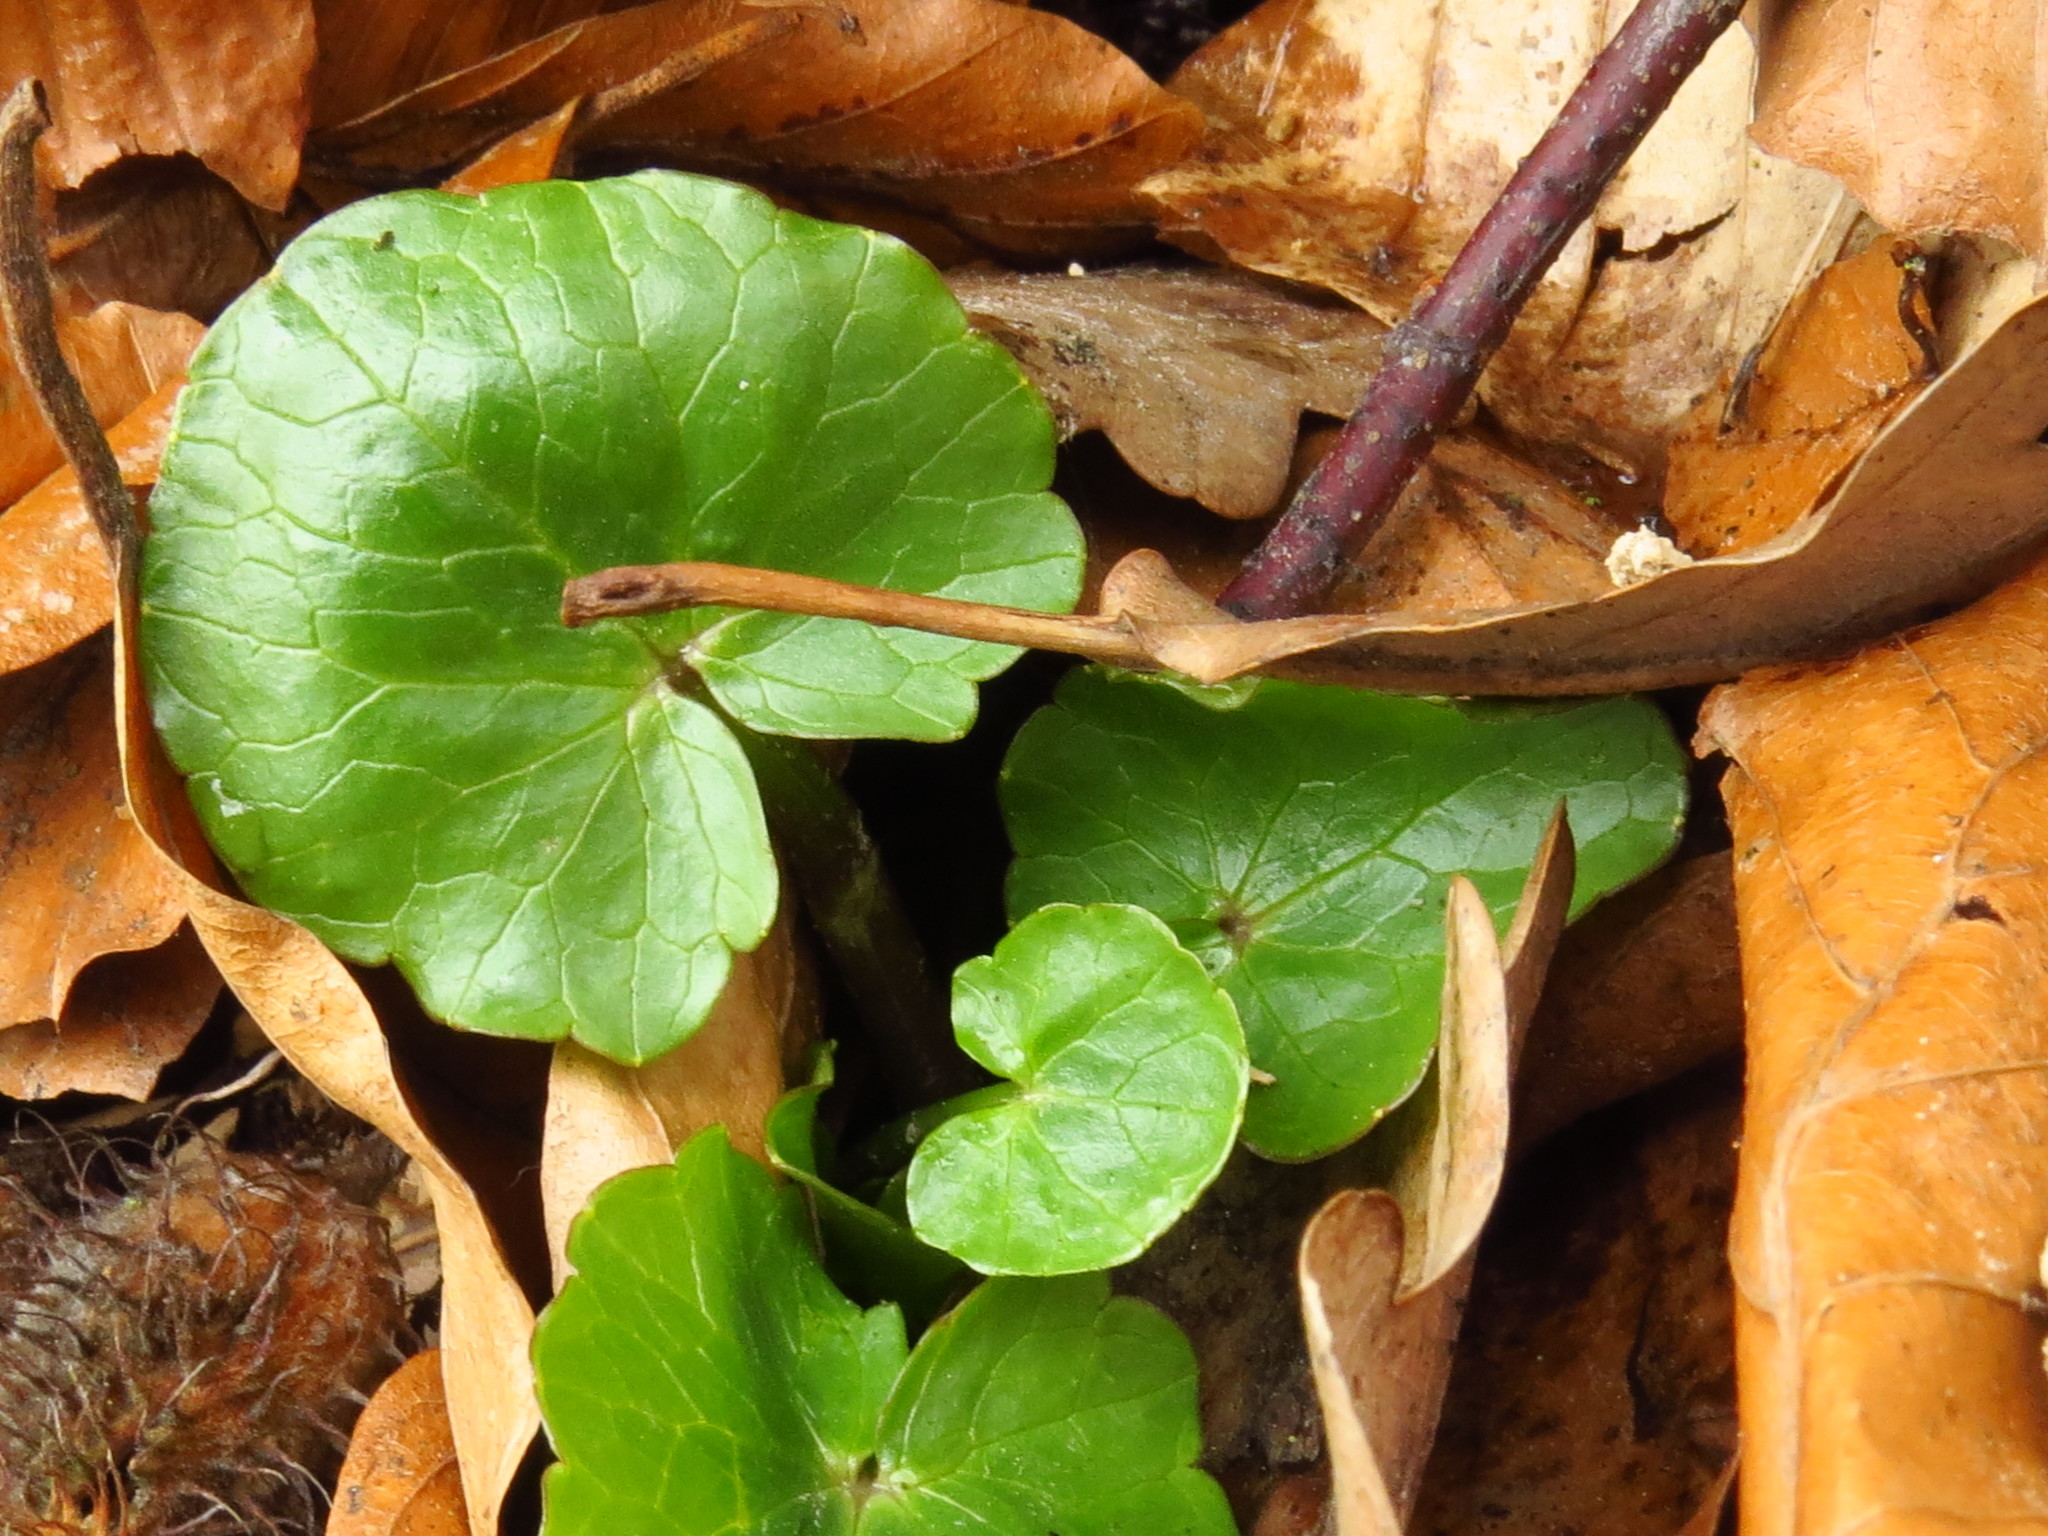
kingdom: Plantae
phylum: Tracheophyta
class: Magnoliopsida
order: Ranunculales
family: Ranunculaceae
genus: Ficaria
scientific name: Ficaria verna
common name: Lesser celandine
